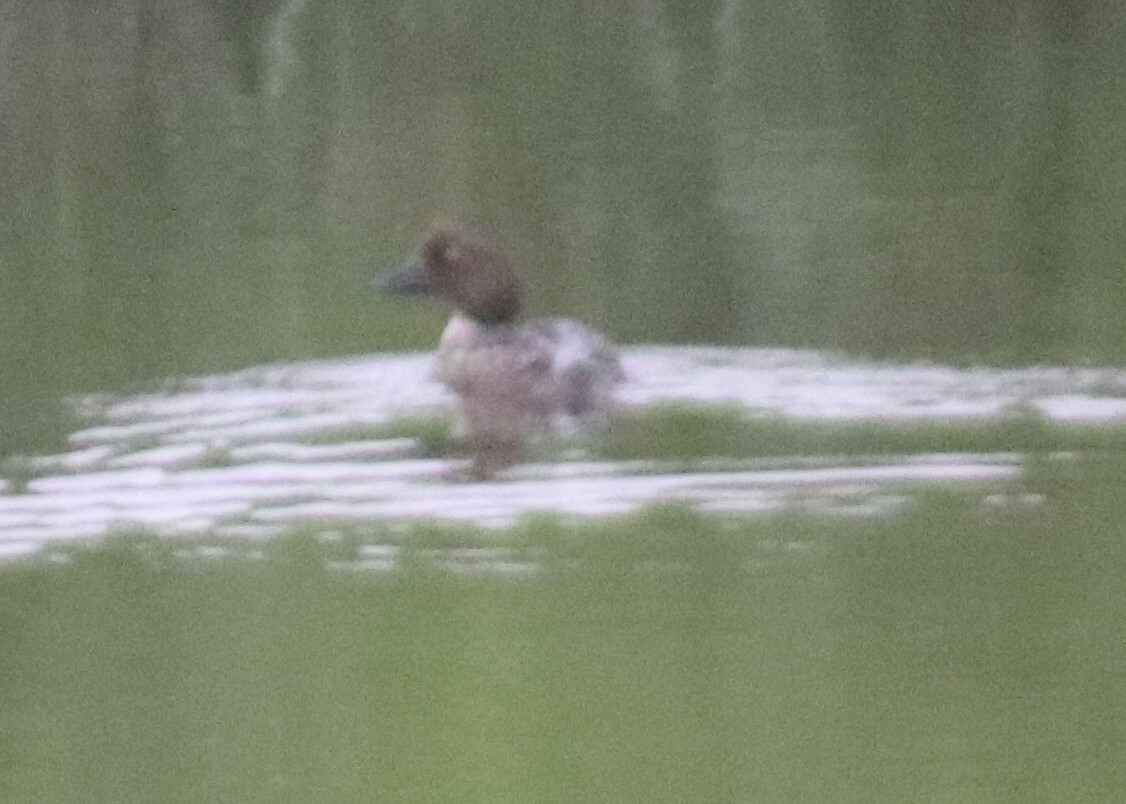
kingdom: Animalia
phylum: Chordata
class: Aves
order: Anseriformes
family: Anatidae
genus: Bucephala
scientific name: Bucephala clangula
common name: Common goldeneye
